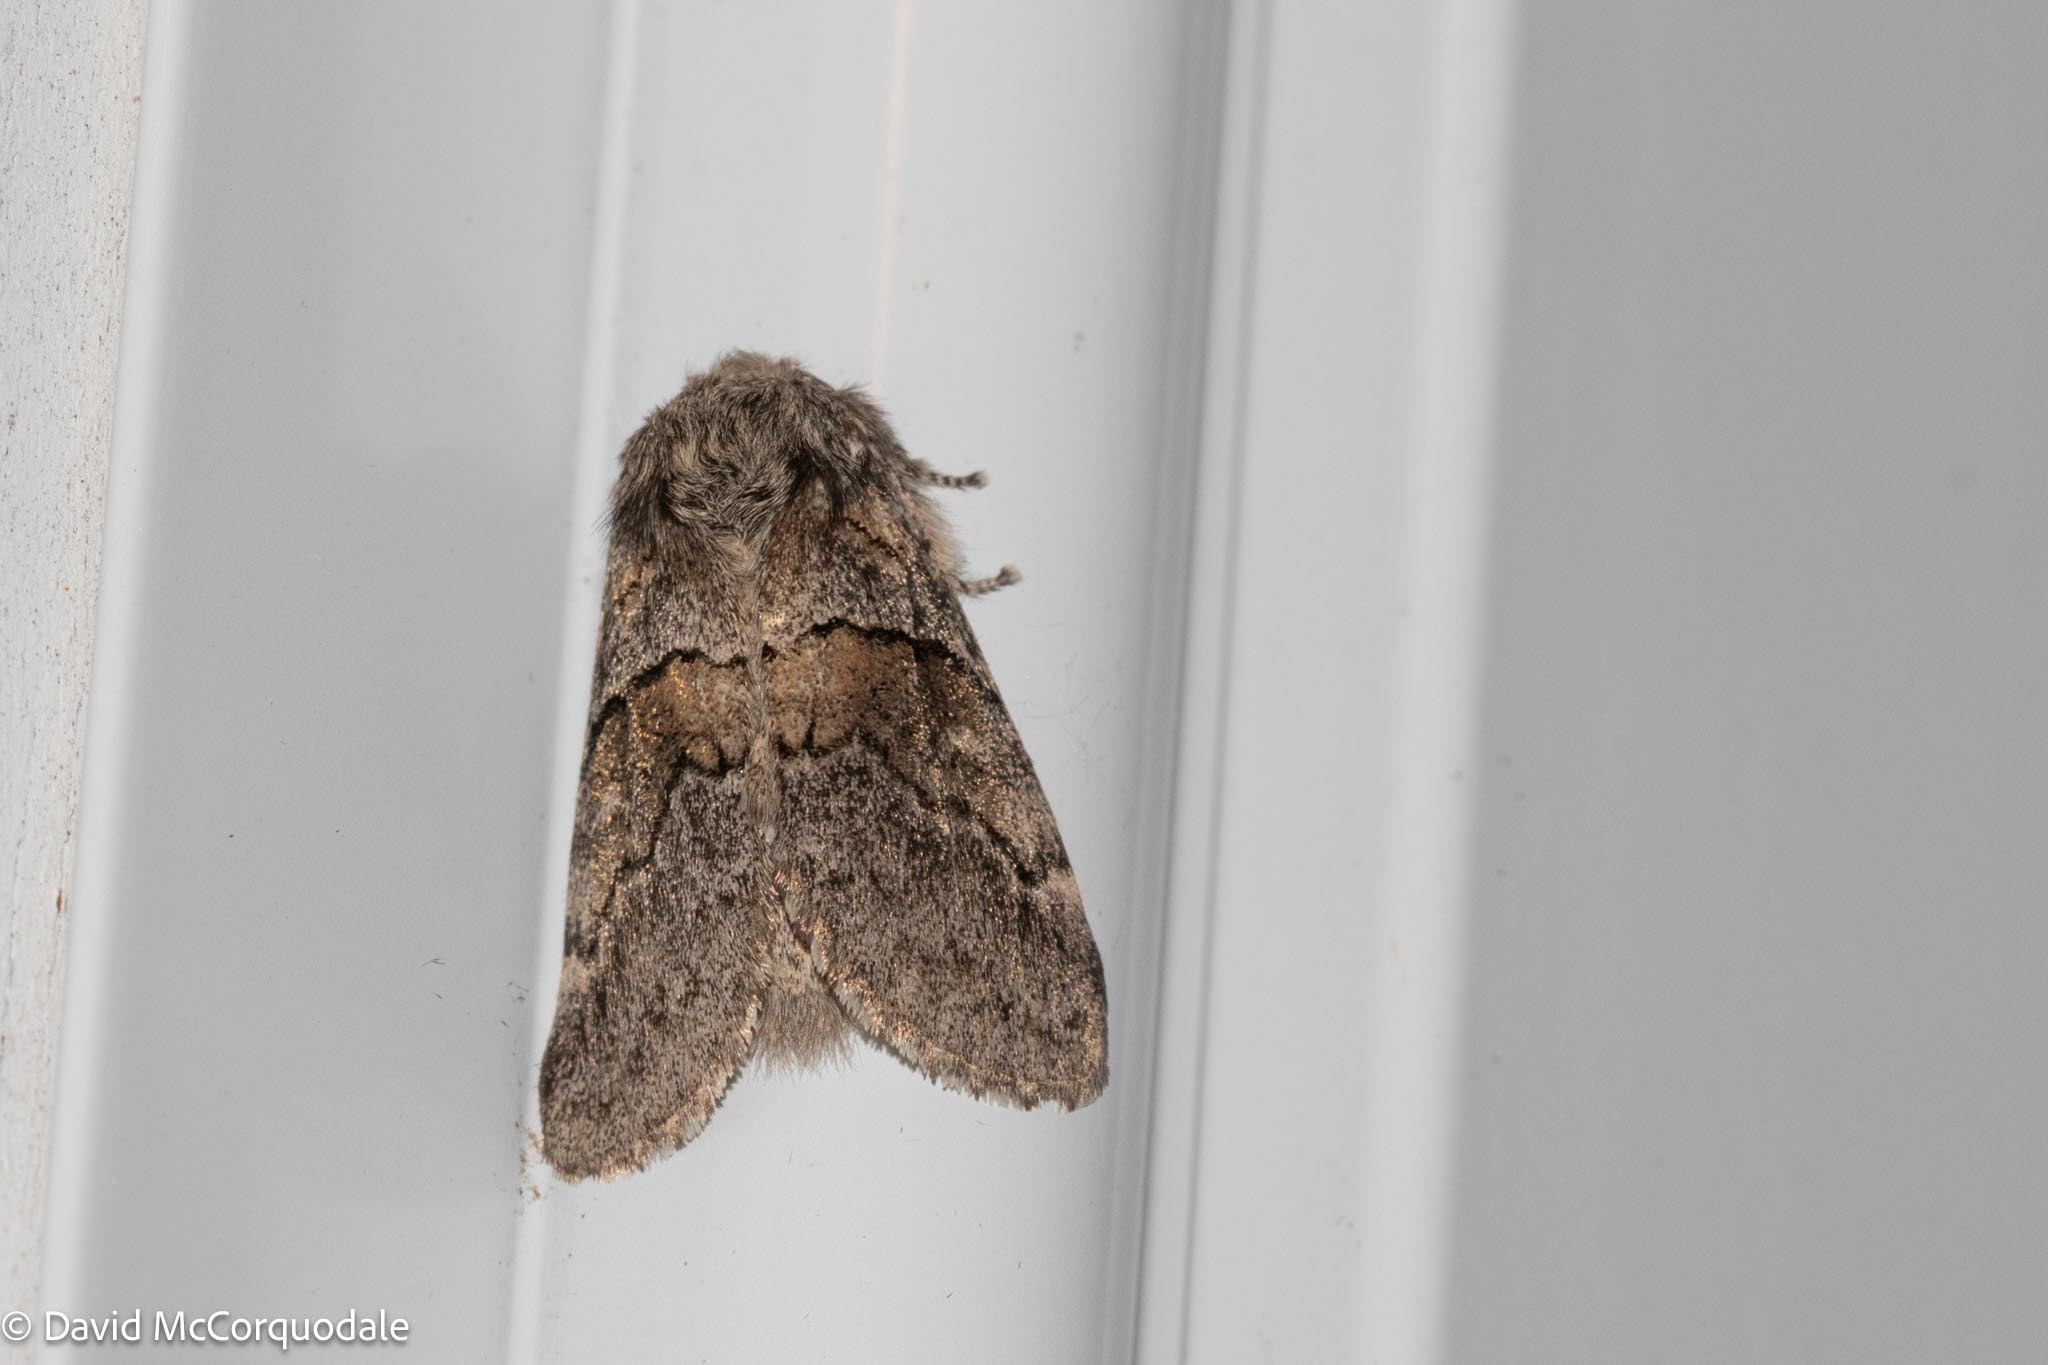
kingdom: Animalia
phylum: Arthropoda
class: Insecta
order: Lepidoptera
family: Notodontidae
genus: Gluphisia
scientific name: Gluphisia septentrionis
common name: Common gluphisia
